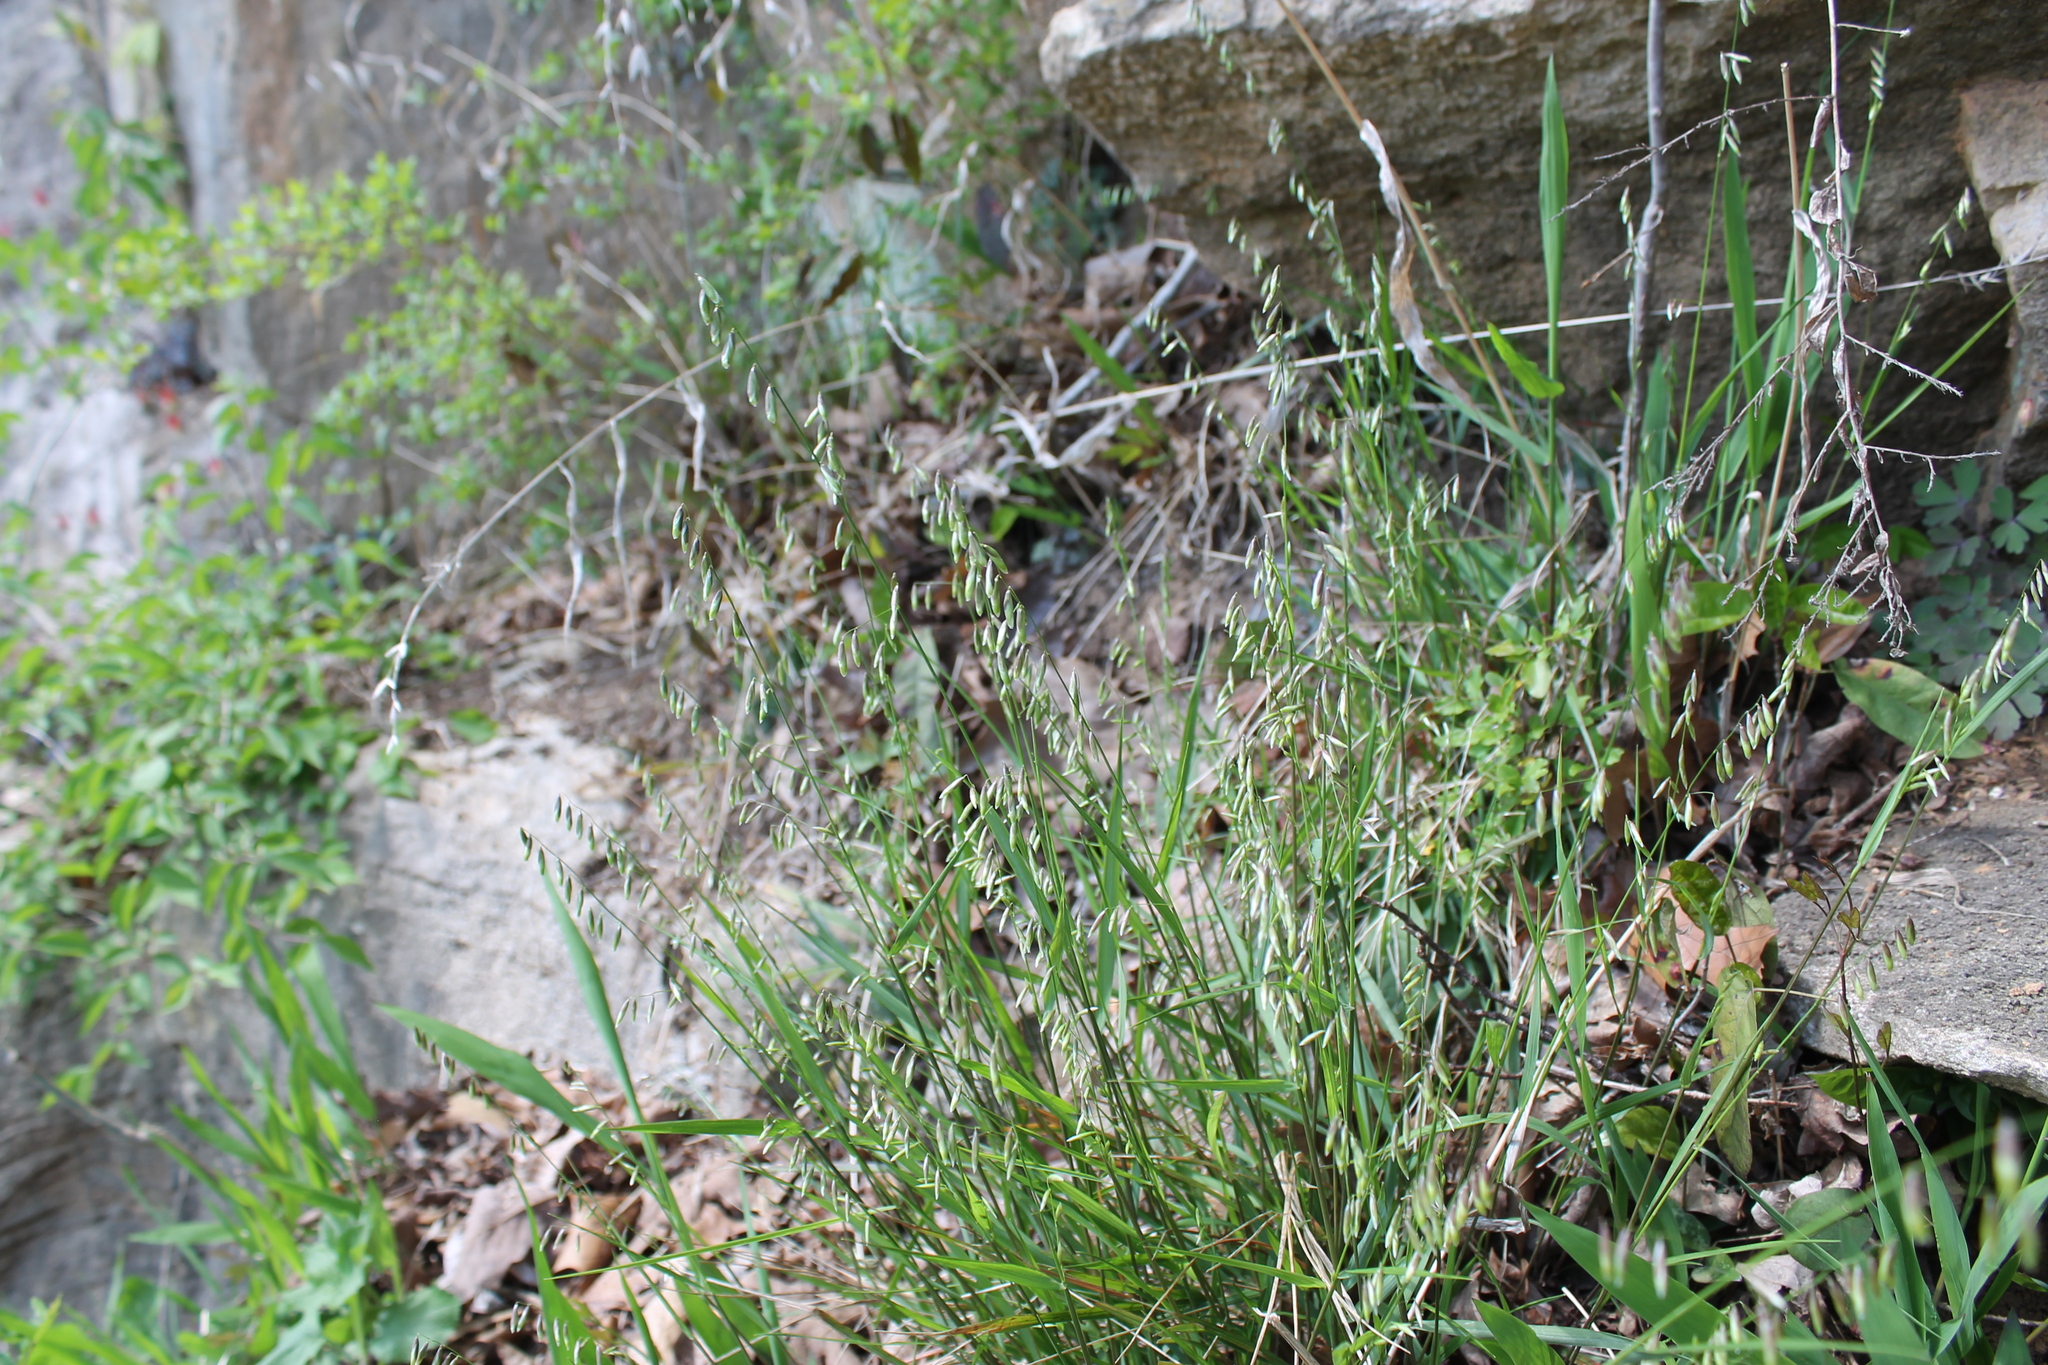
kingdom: Plantae
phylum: Tracheophyta
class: Liliopsida
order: Poales
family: Poaceae
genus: Melica
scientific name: Melica mutica
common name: Two-flower melic
